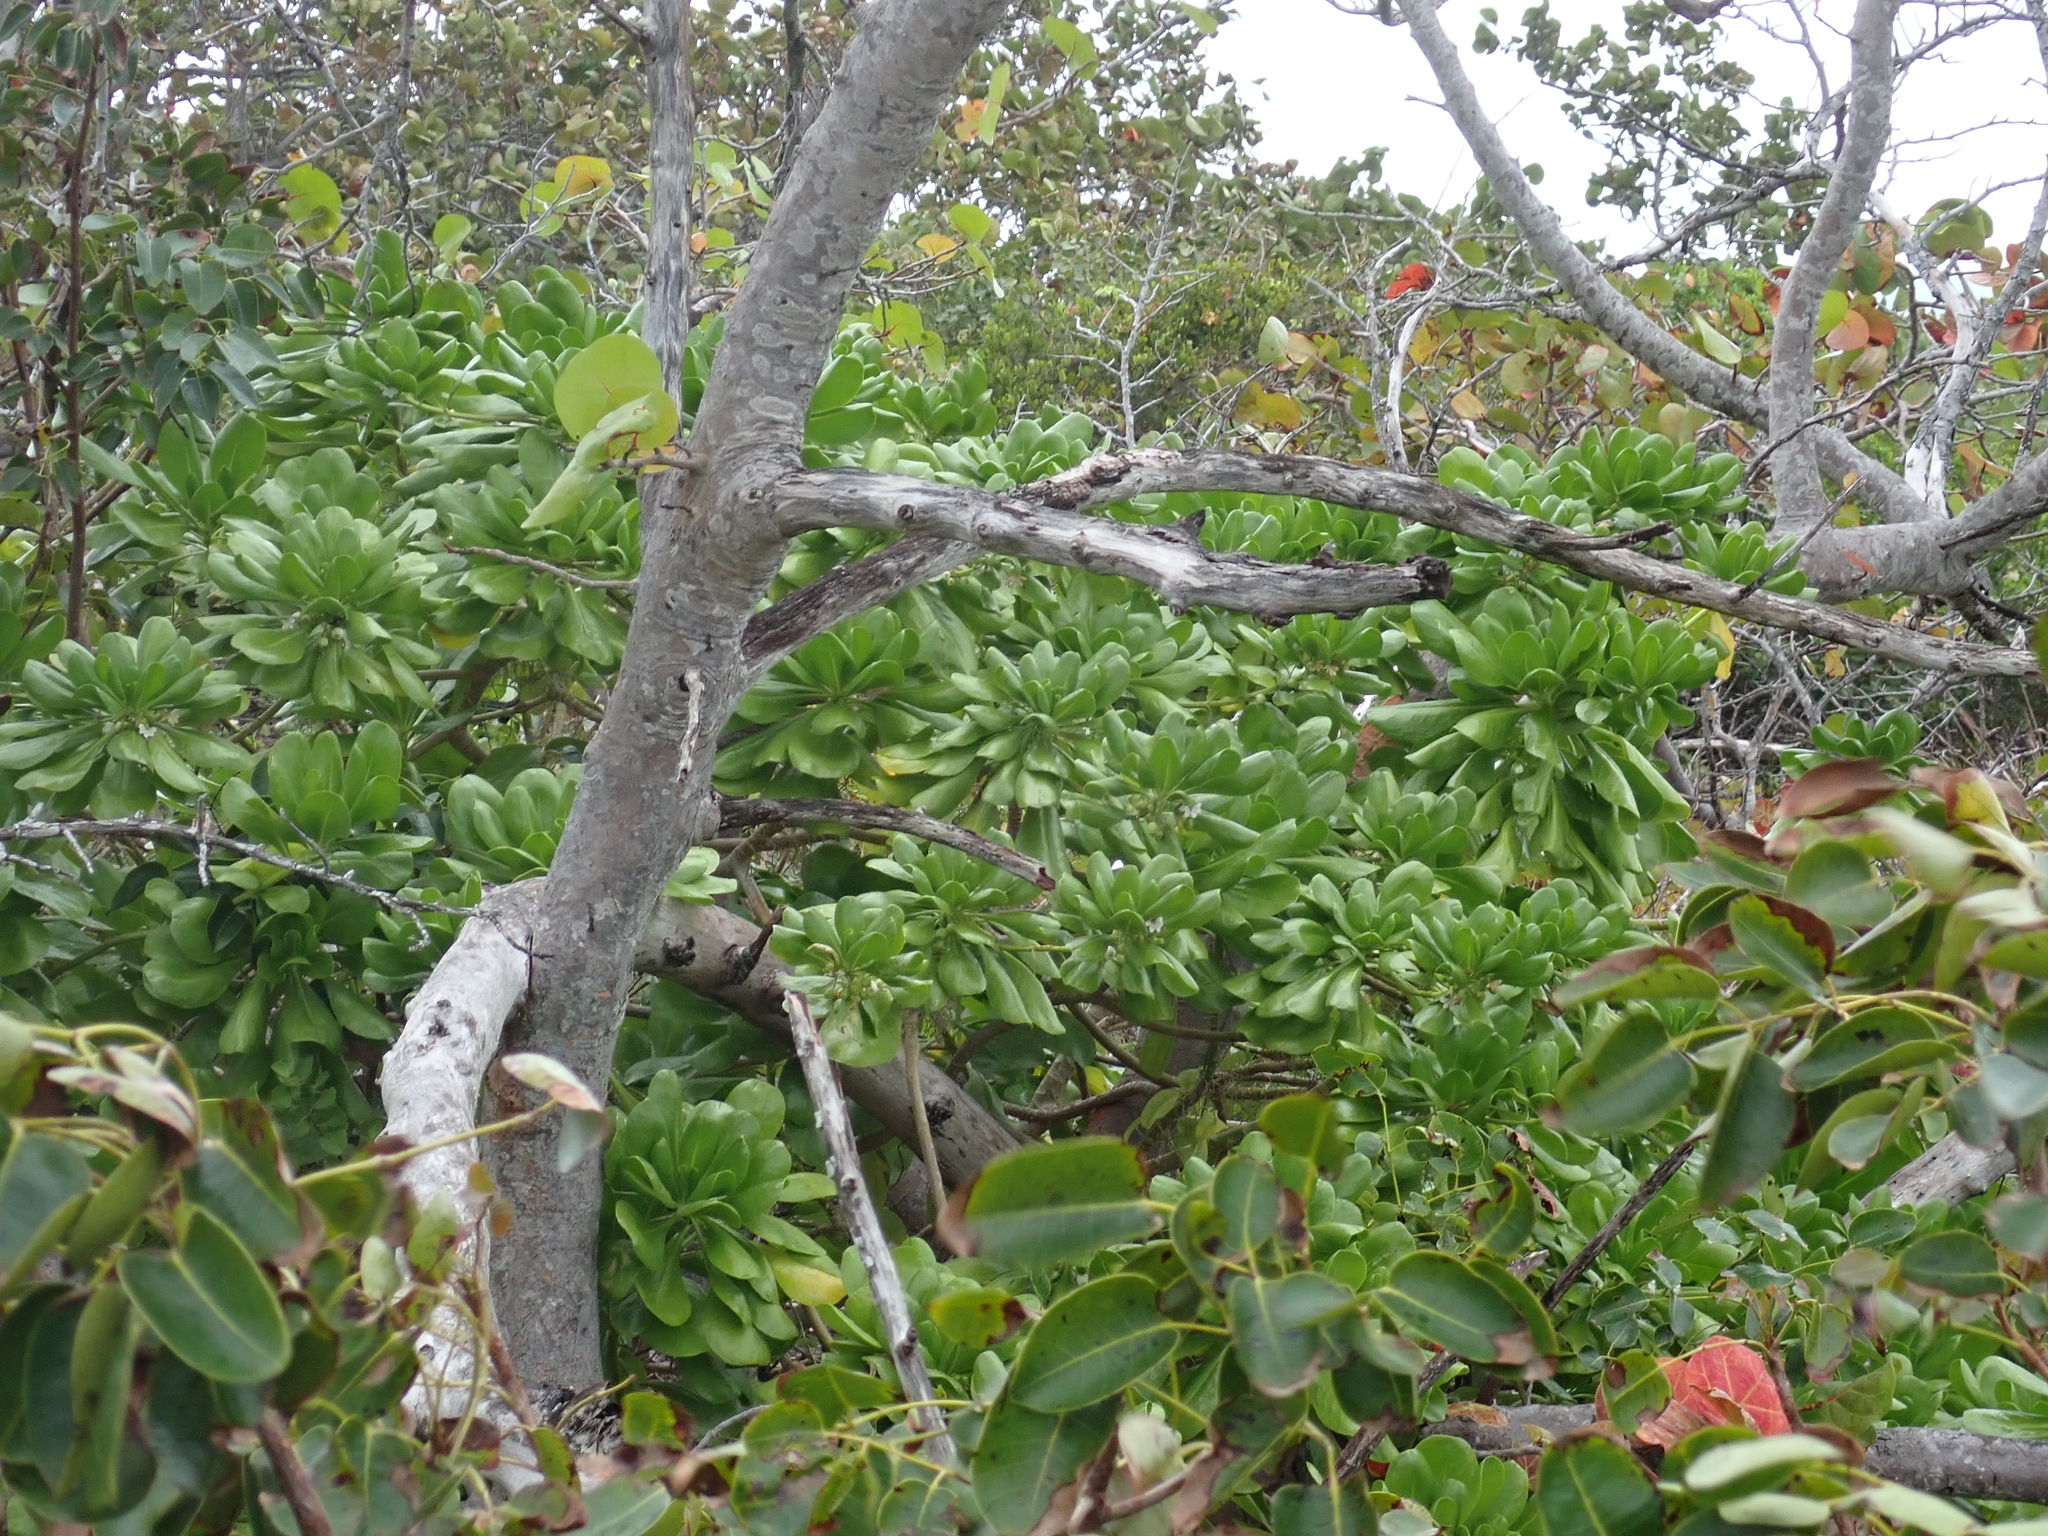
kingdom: Plantae
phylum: Tracheophyta
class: Magnoliopsida
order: Asterales
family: Goodeniaceae
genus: Scaevola
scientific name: Scaevola taccada
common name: Sea lettucetree
